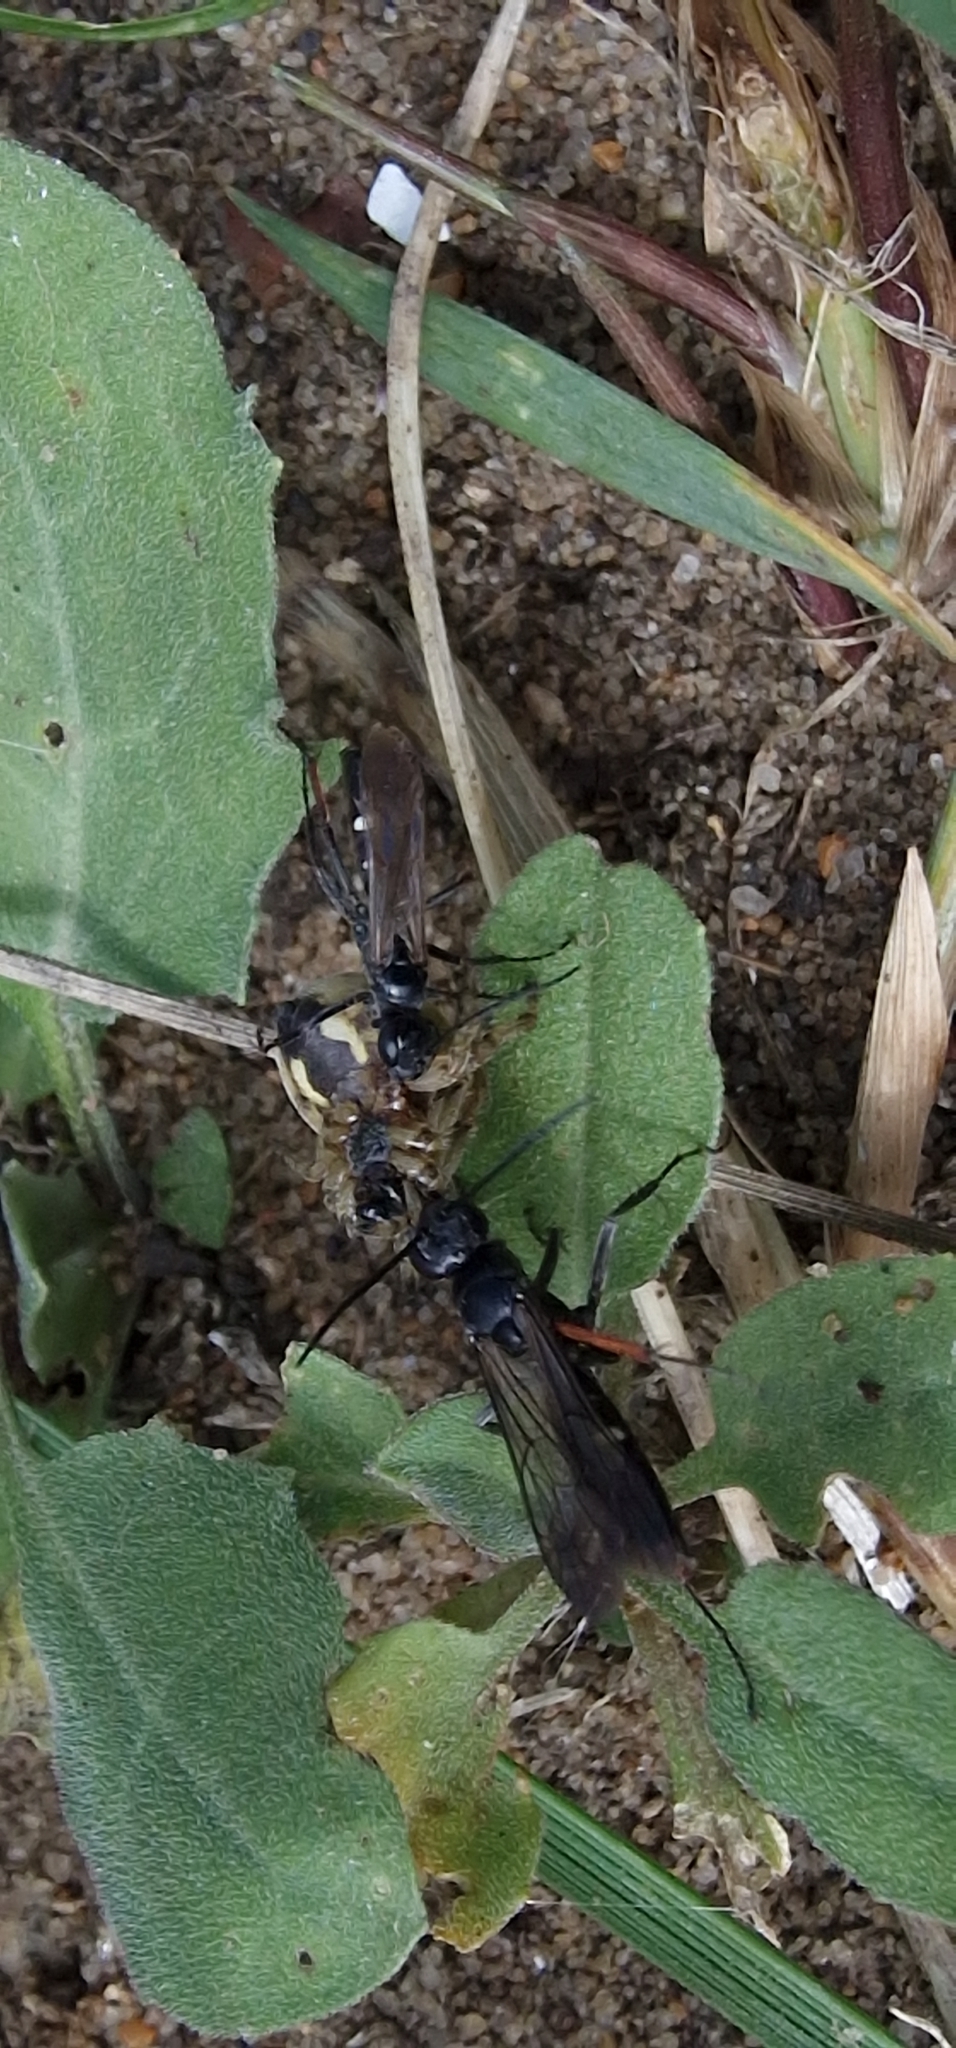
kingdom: Animalia
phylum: Arthropoda
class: Insecta
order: Hymenoptera
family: Pompilidae
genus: Episyron
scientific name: Episyron rufipes
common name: Red legged spider wasp
